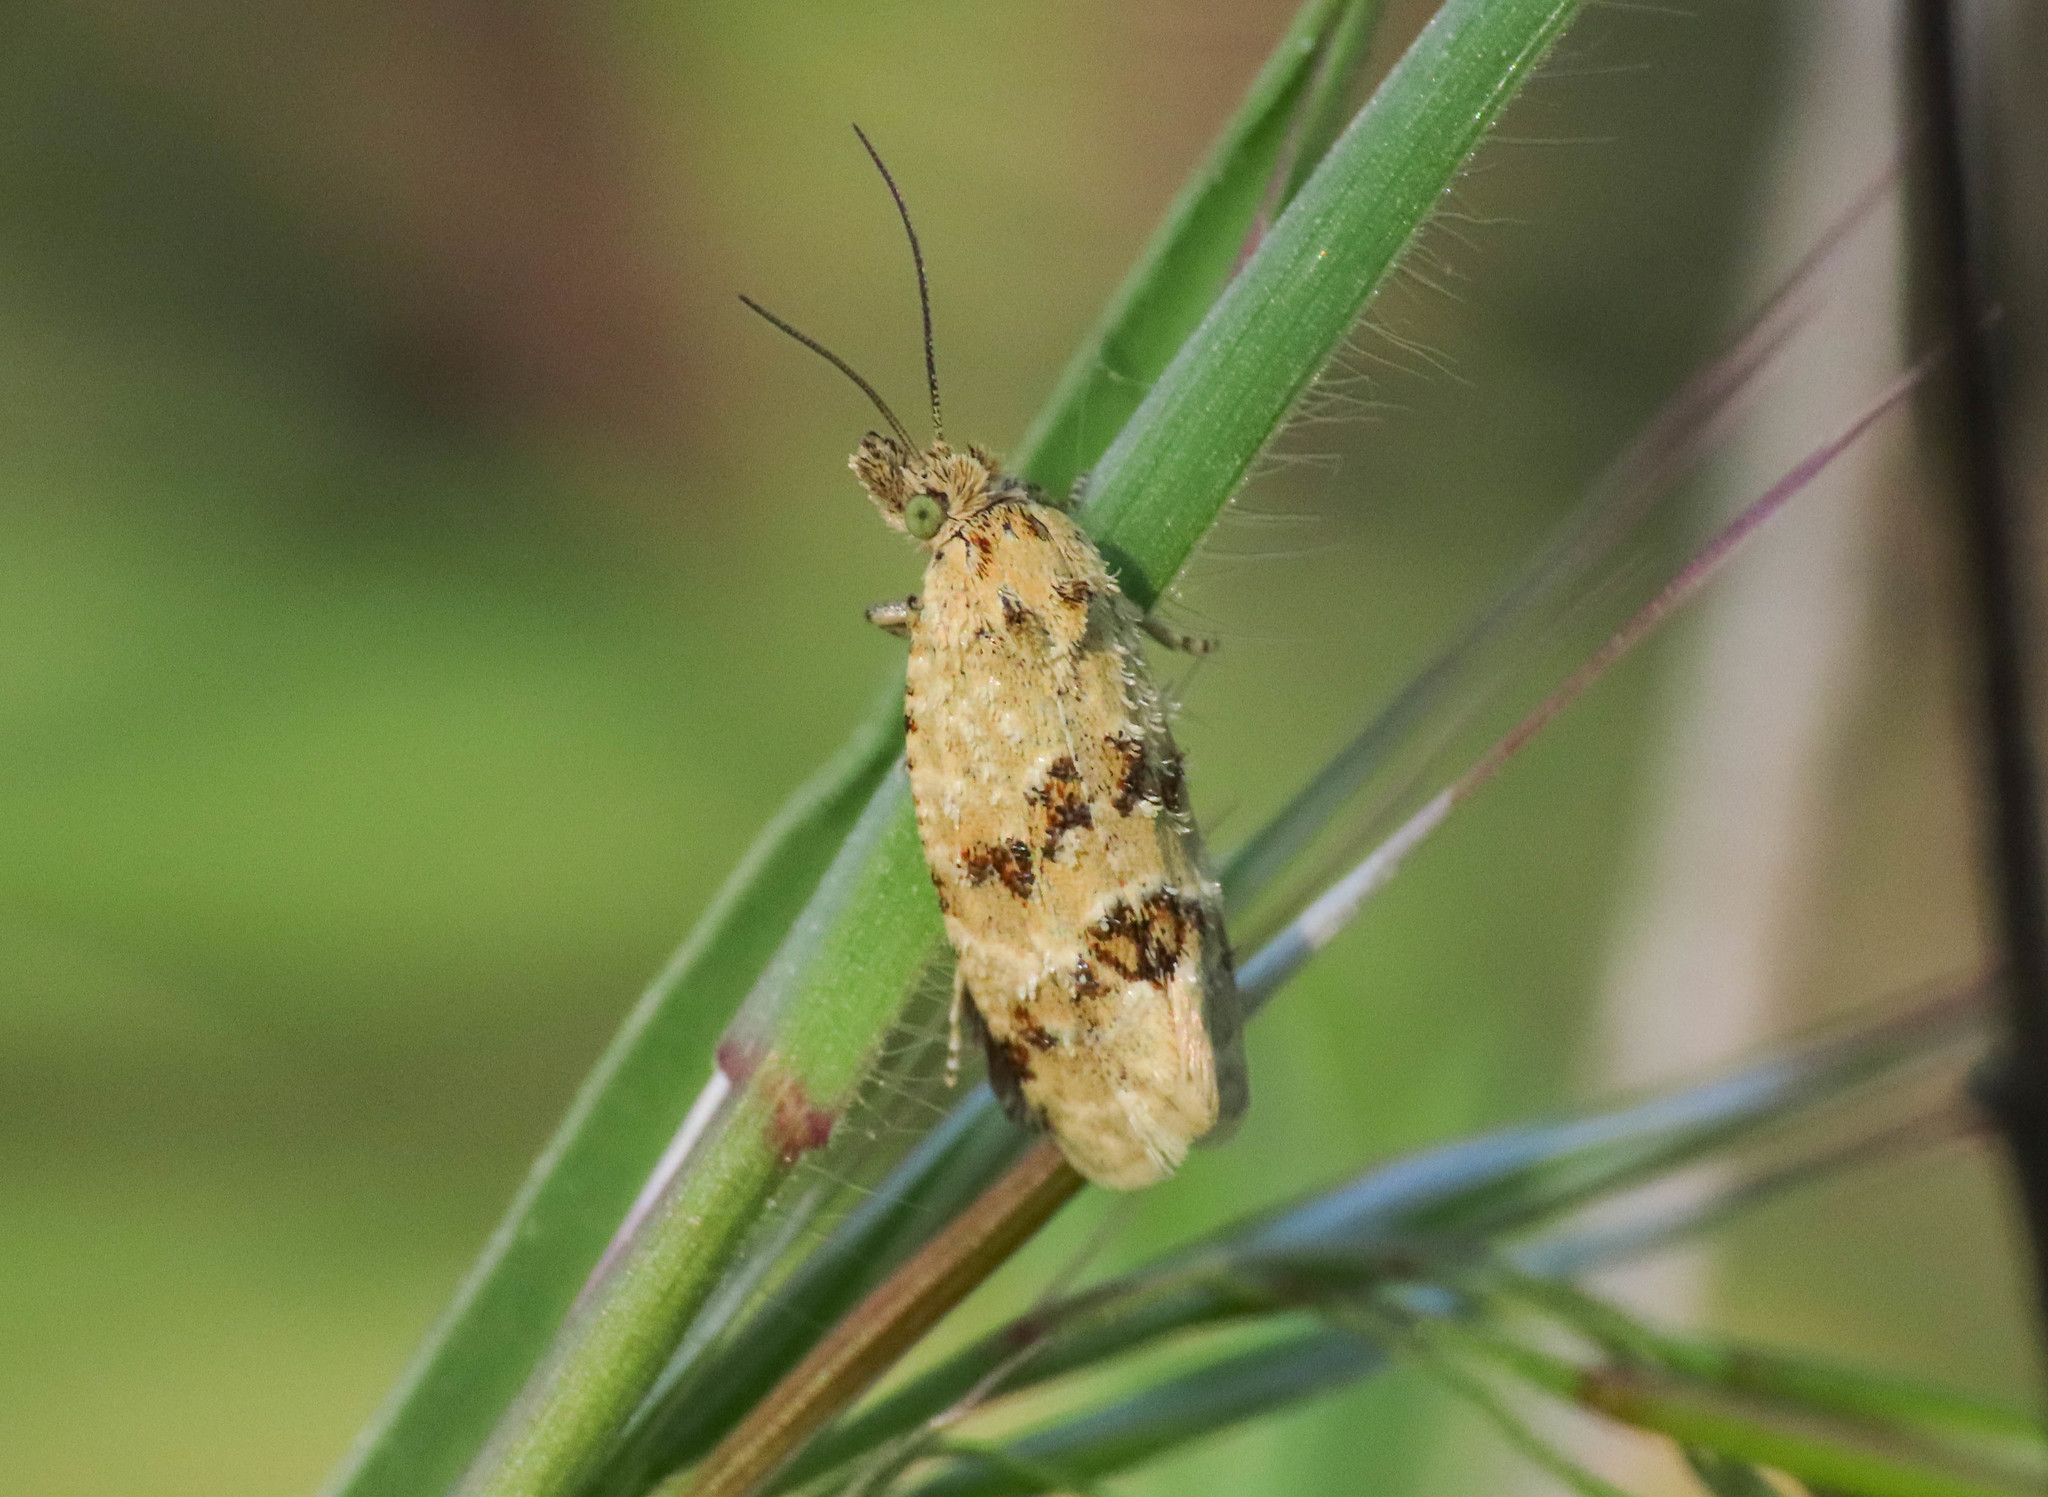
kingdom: Animalia
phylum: Arthropoda
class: Insecta
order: Lepidoptera
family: Tortricidae
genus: Aethes
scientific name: Aethes williana
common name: Silver carrot conch
